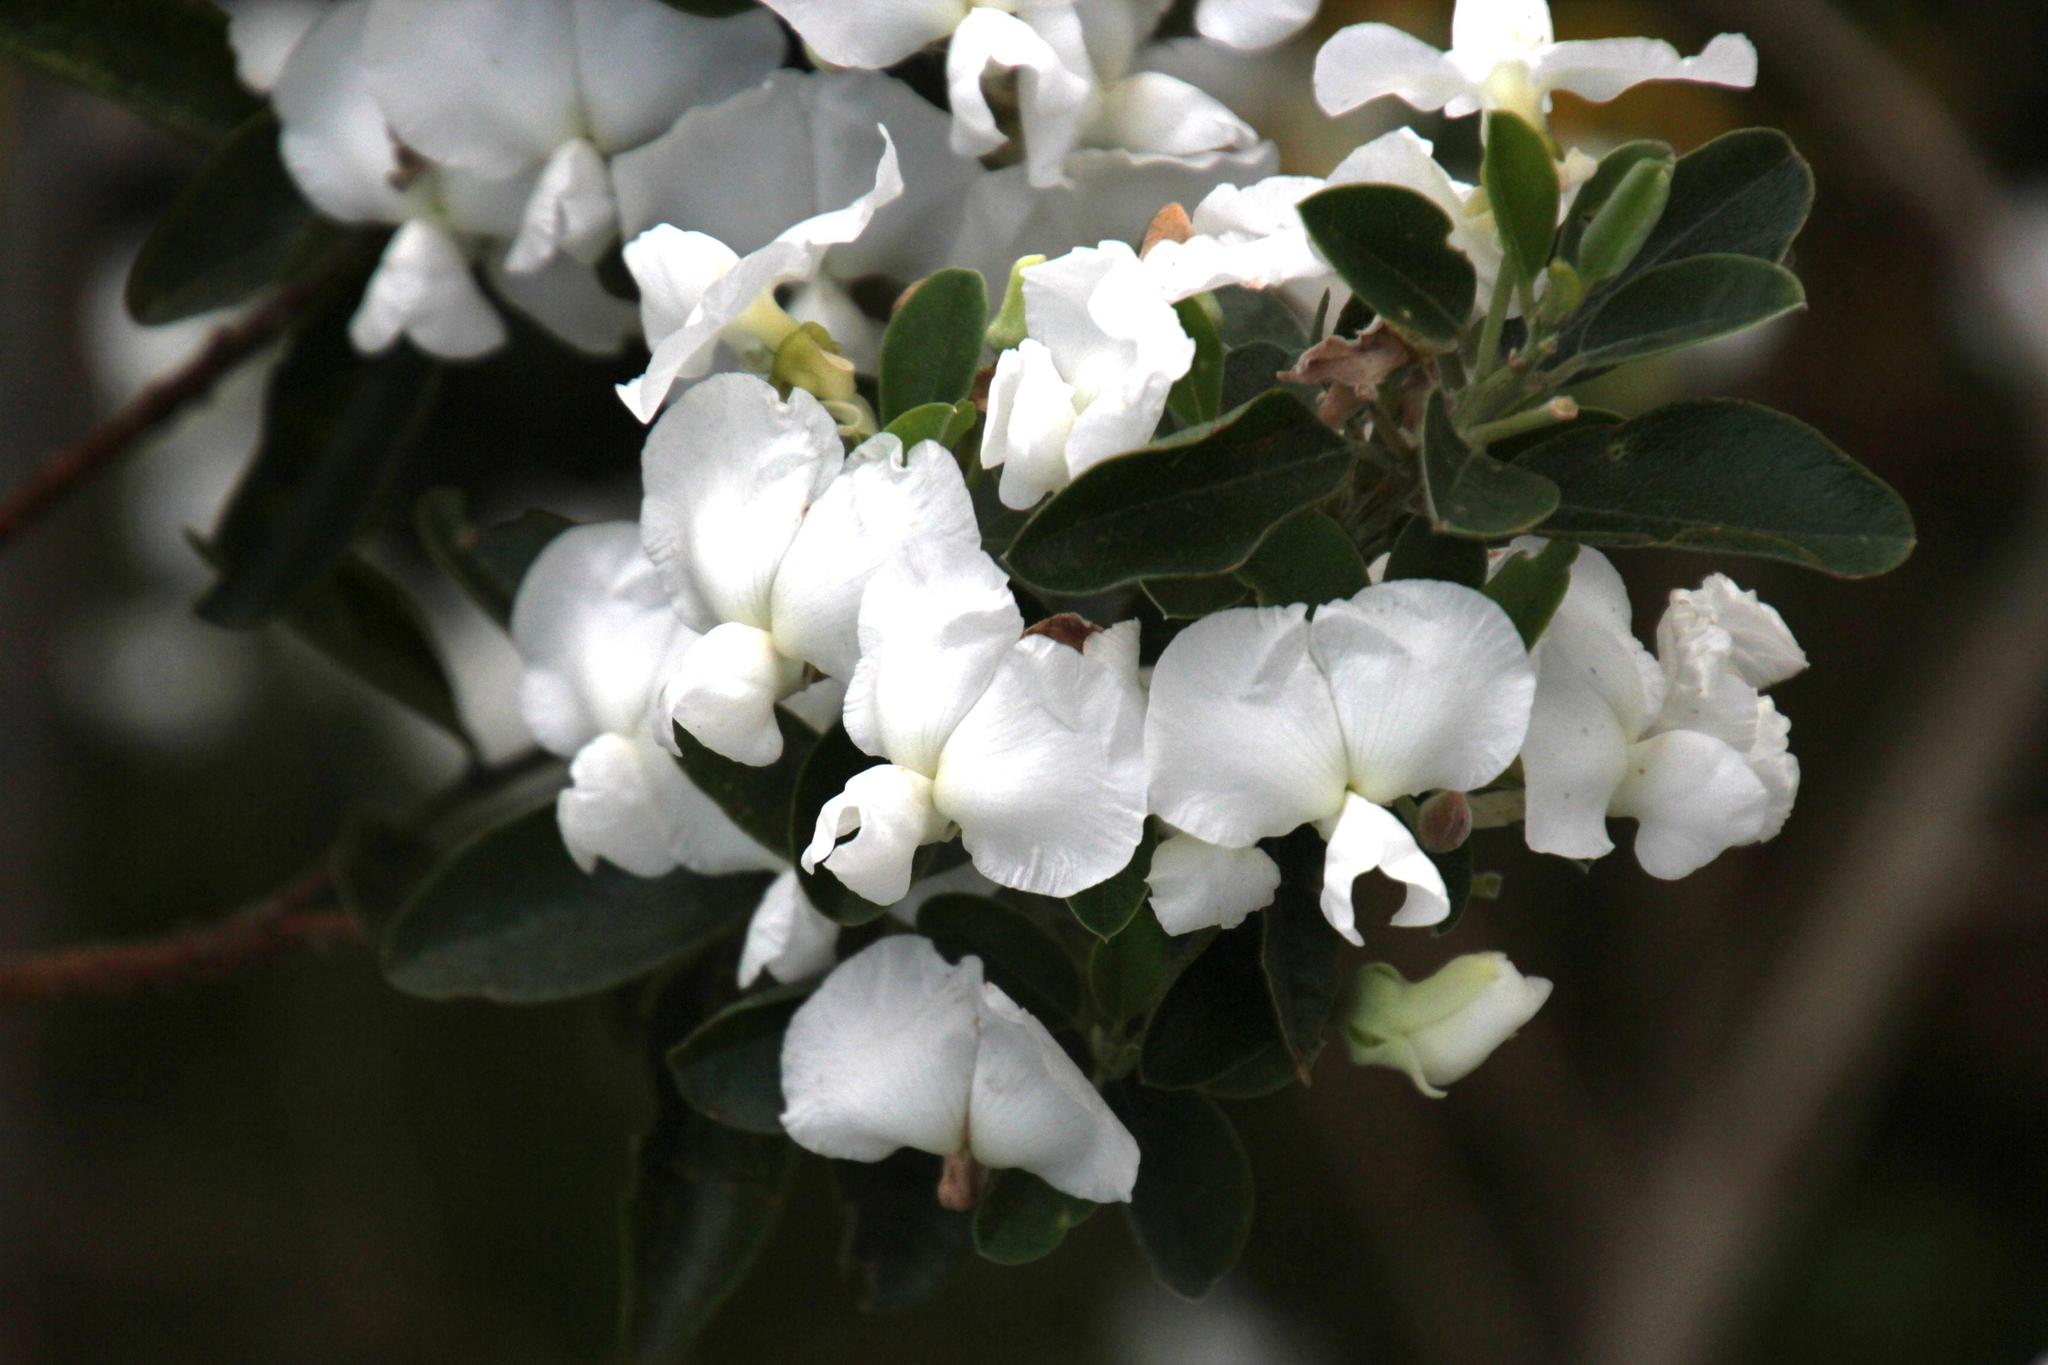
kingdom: Plantae
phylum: Tracheophyta
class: Magnoliopsida
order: Fabales
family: Fabaceae
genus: Podalyria
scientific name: Podalyria calyptrata
